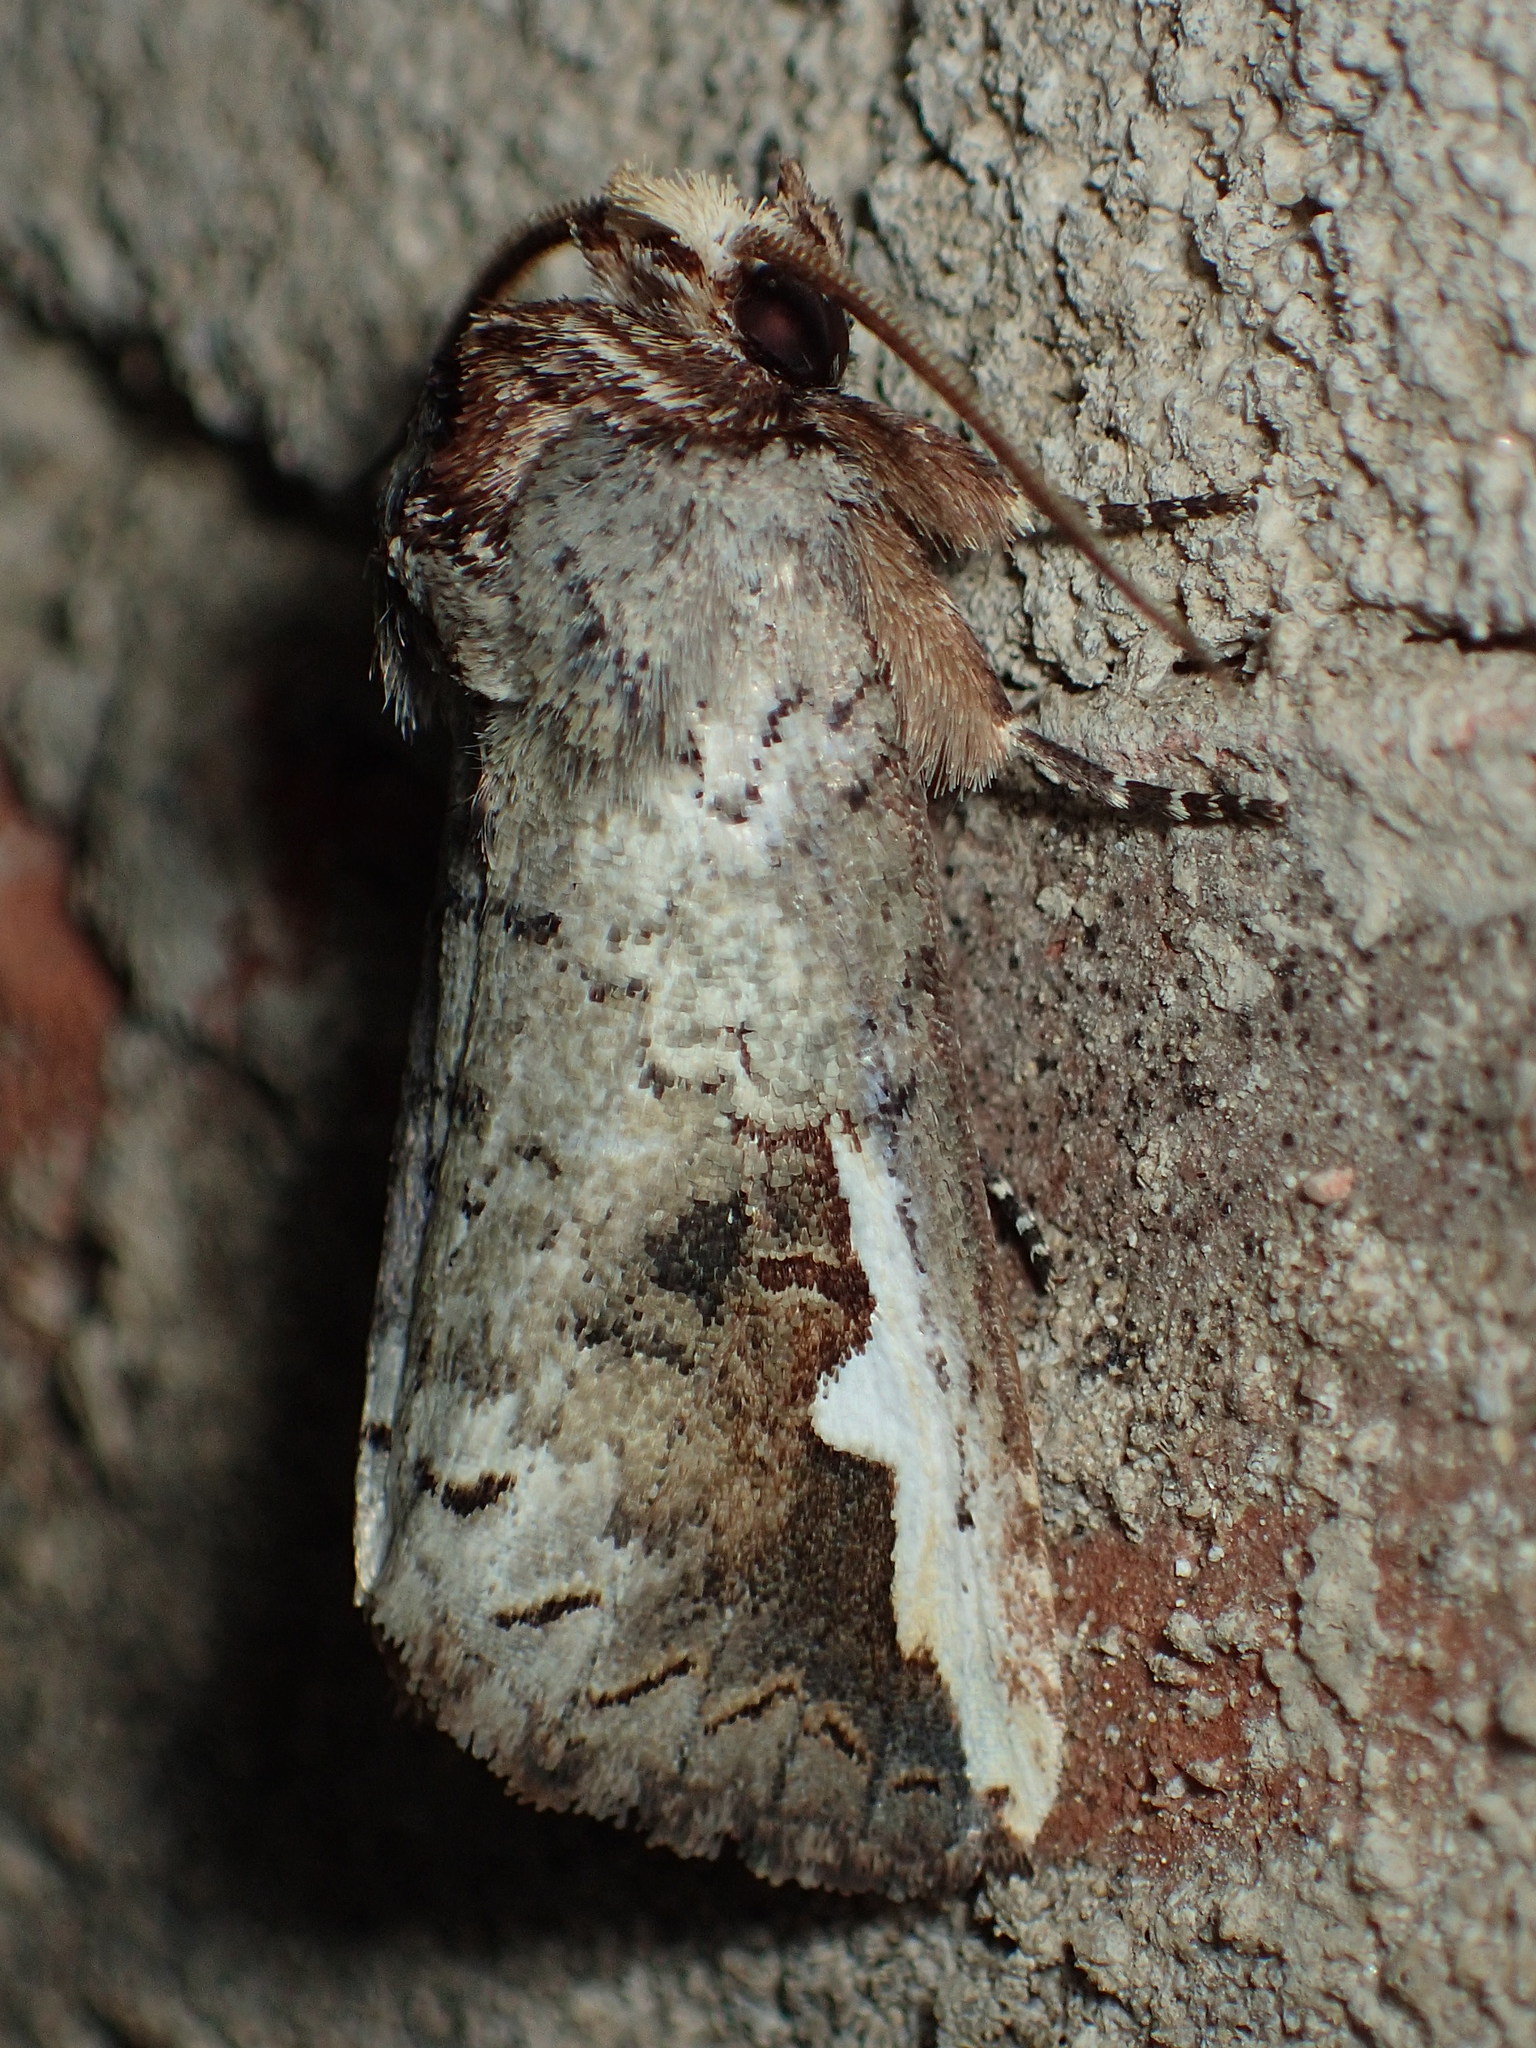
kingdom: Animalia
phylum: Arthropoda
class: Insecta
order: Lepidoptera
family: Notodontidae
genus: Symmerista
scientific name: Symmerista
